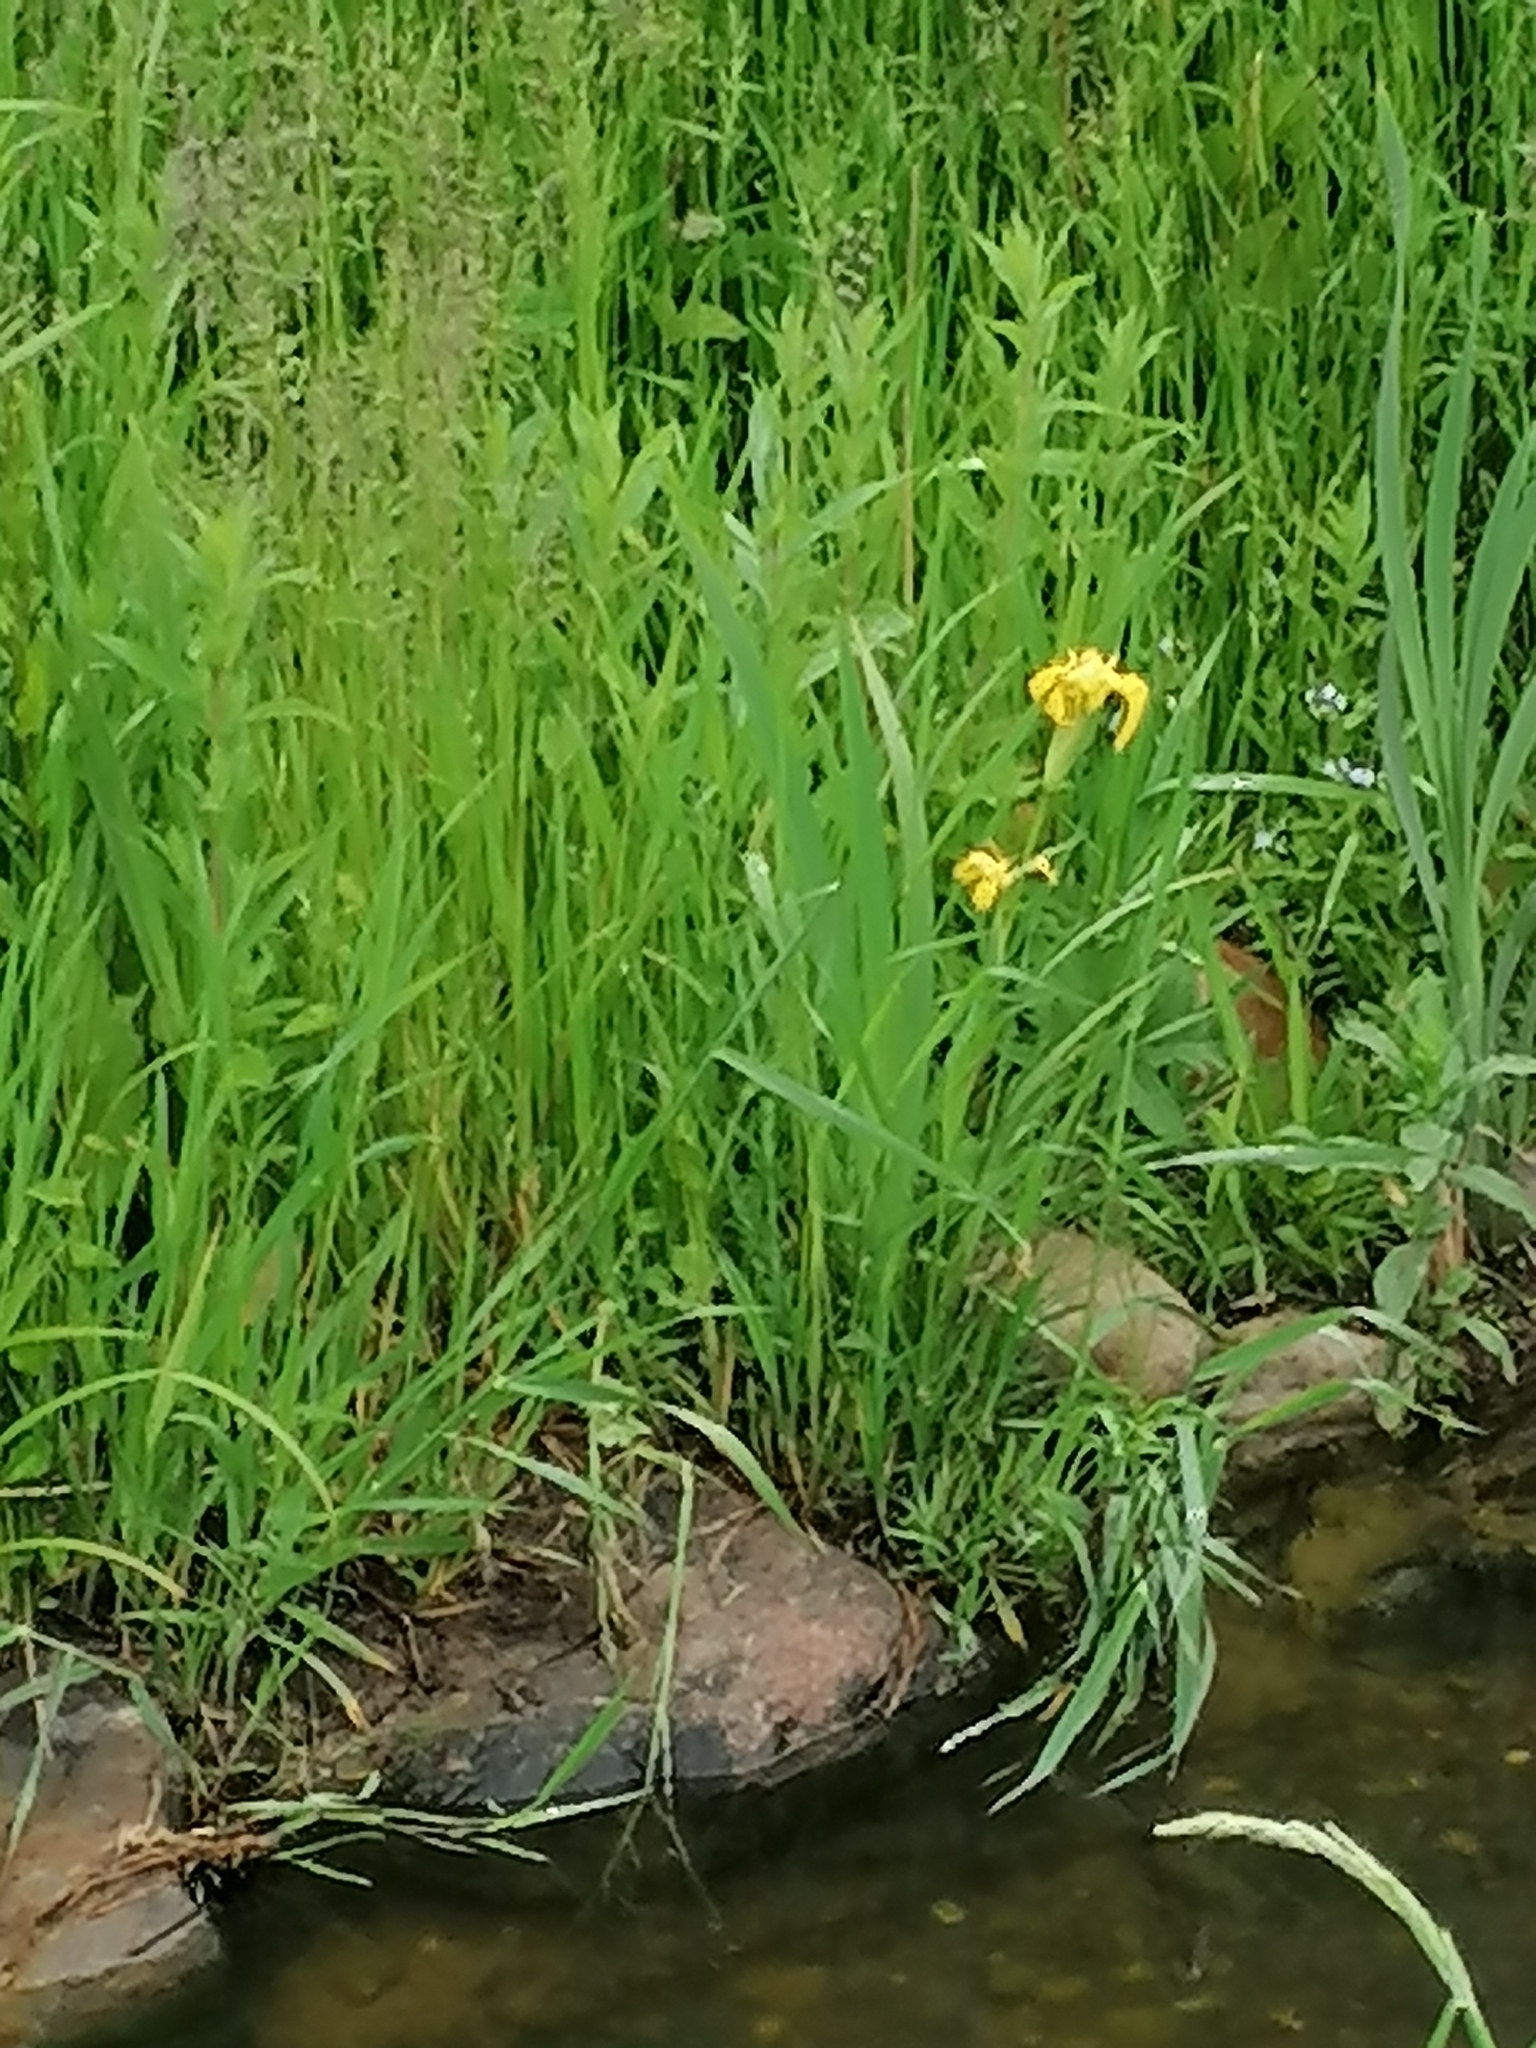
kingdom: Plantae
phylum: Tracheophyta
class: Liliopsida
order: Asparagales
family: Iridaceae
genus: Iris
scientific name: Iris pseudacorus
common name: Yellow flag
